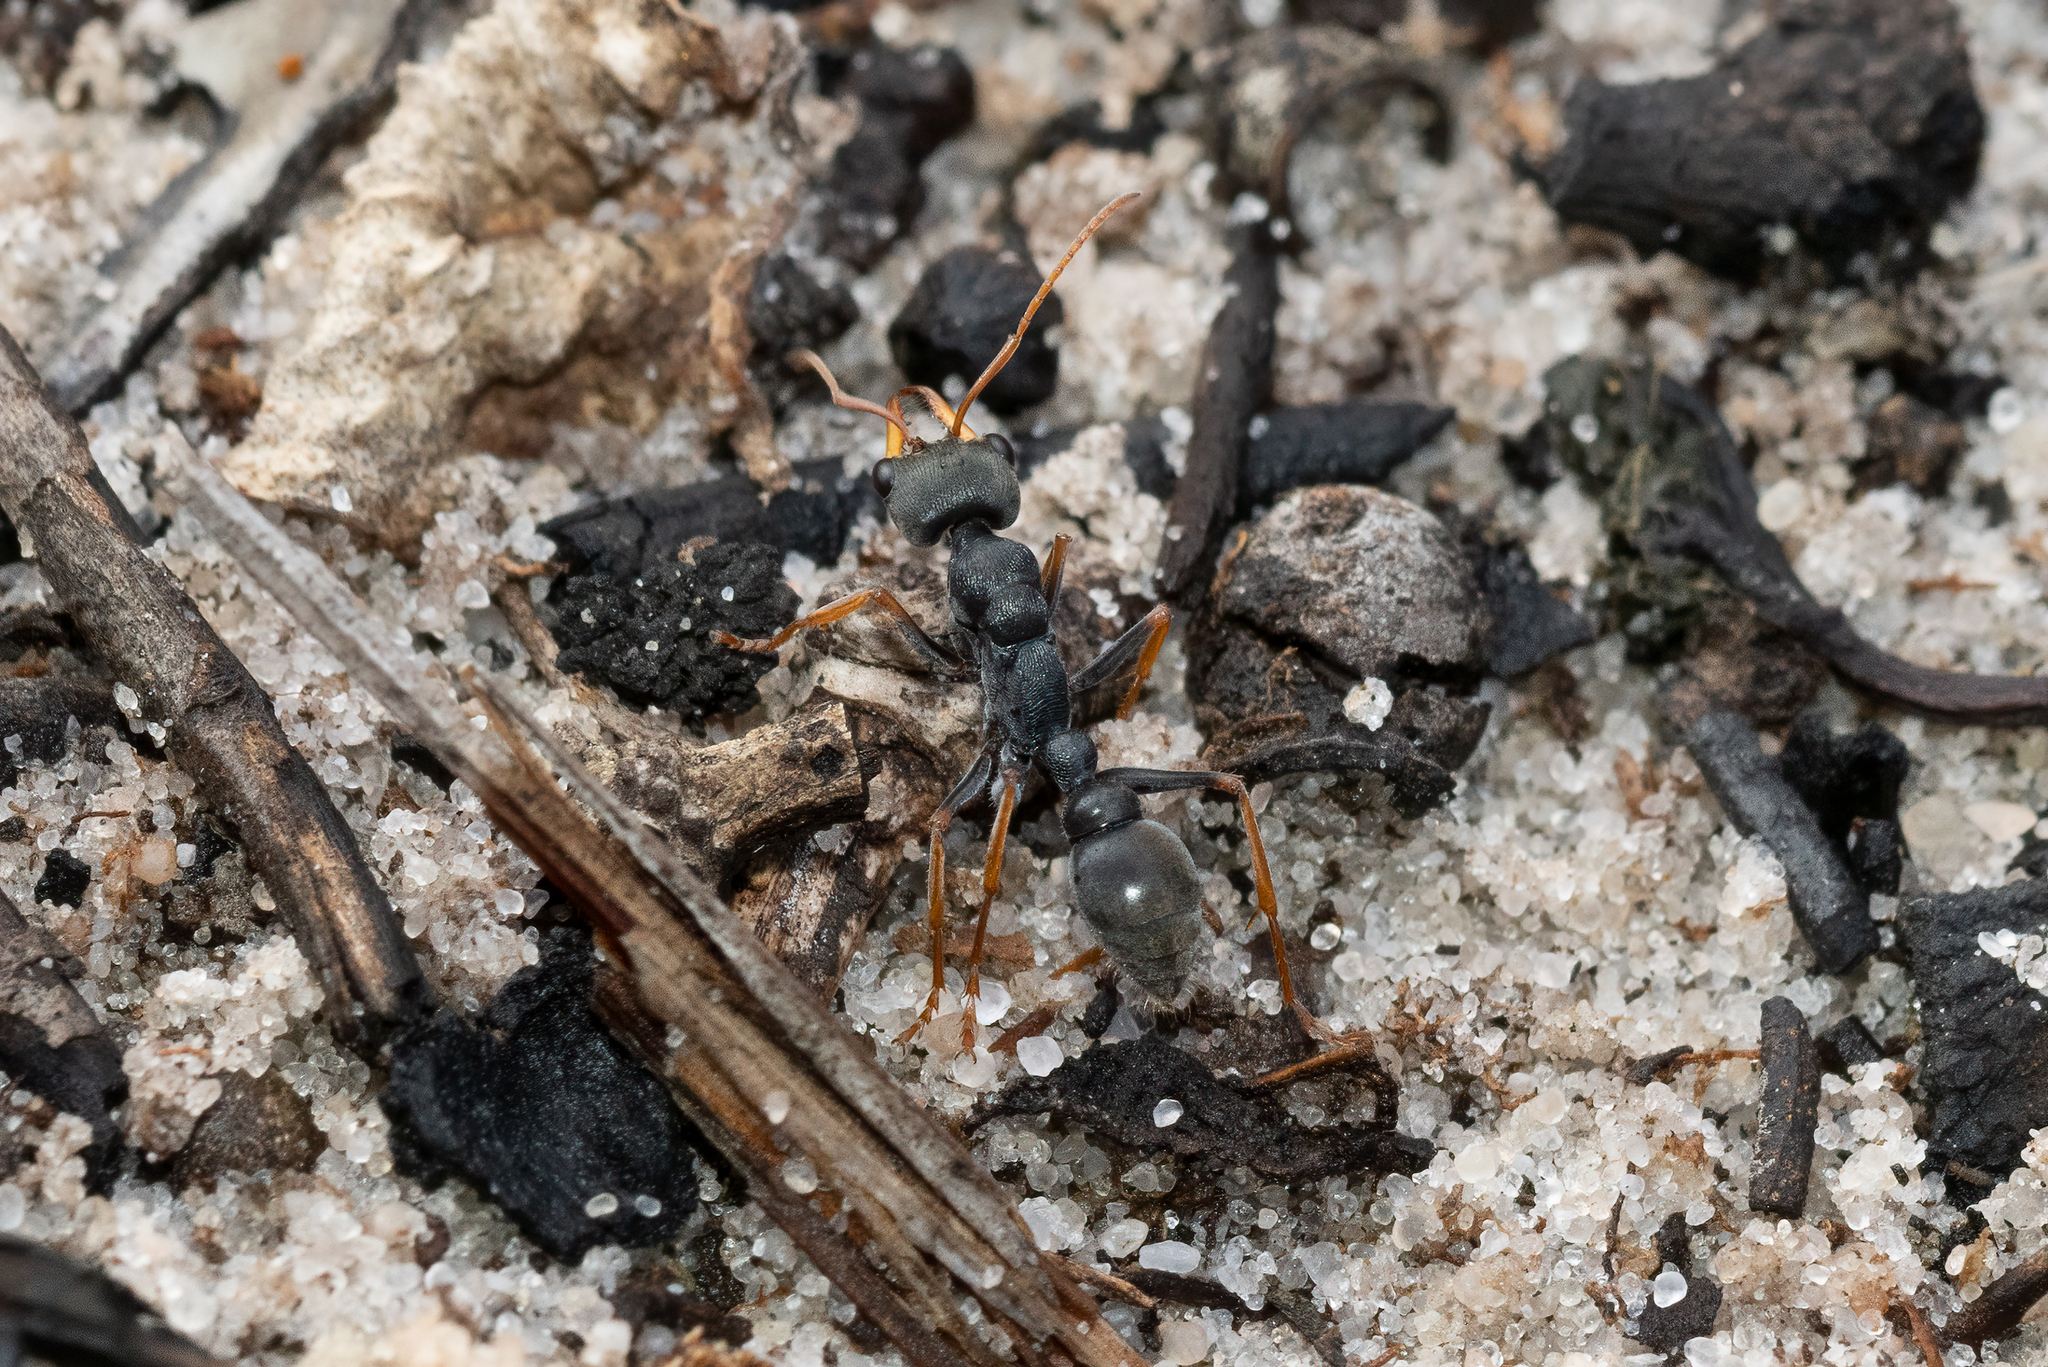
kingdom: Animalia
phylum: Arthropoda
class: Insecta
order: Hymenoptera
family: Formicidae
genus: Myrmecia
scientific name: Myrmecia pilosula
